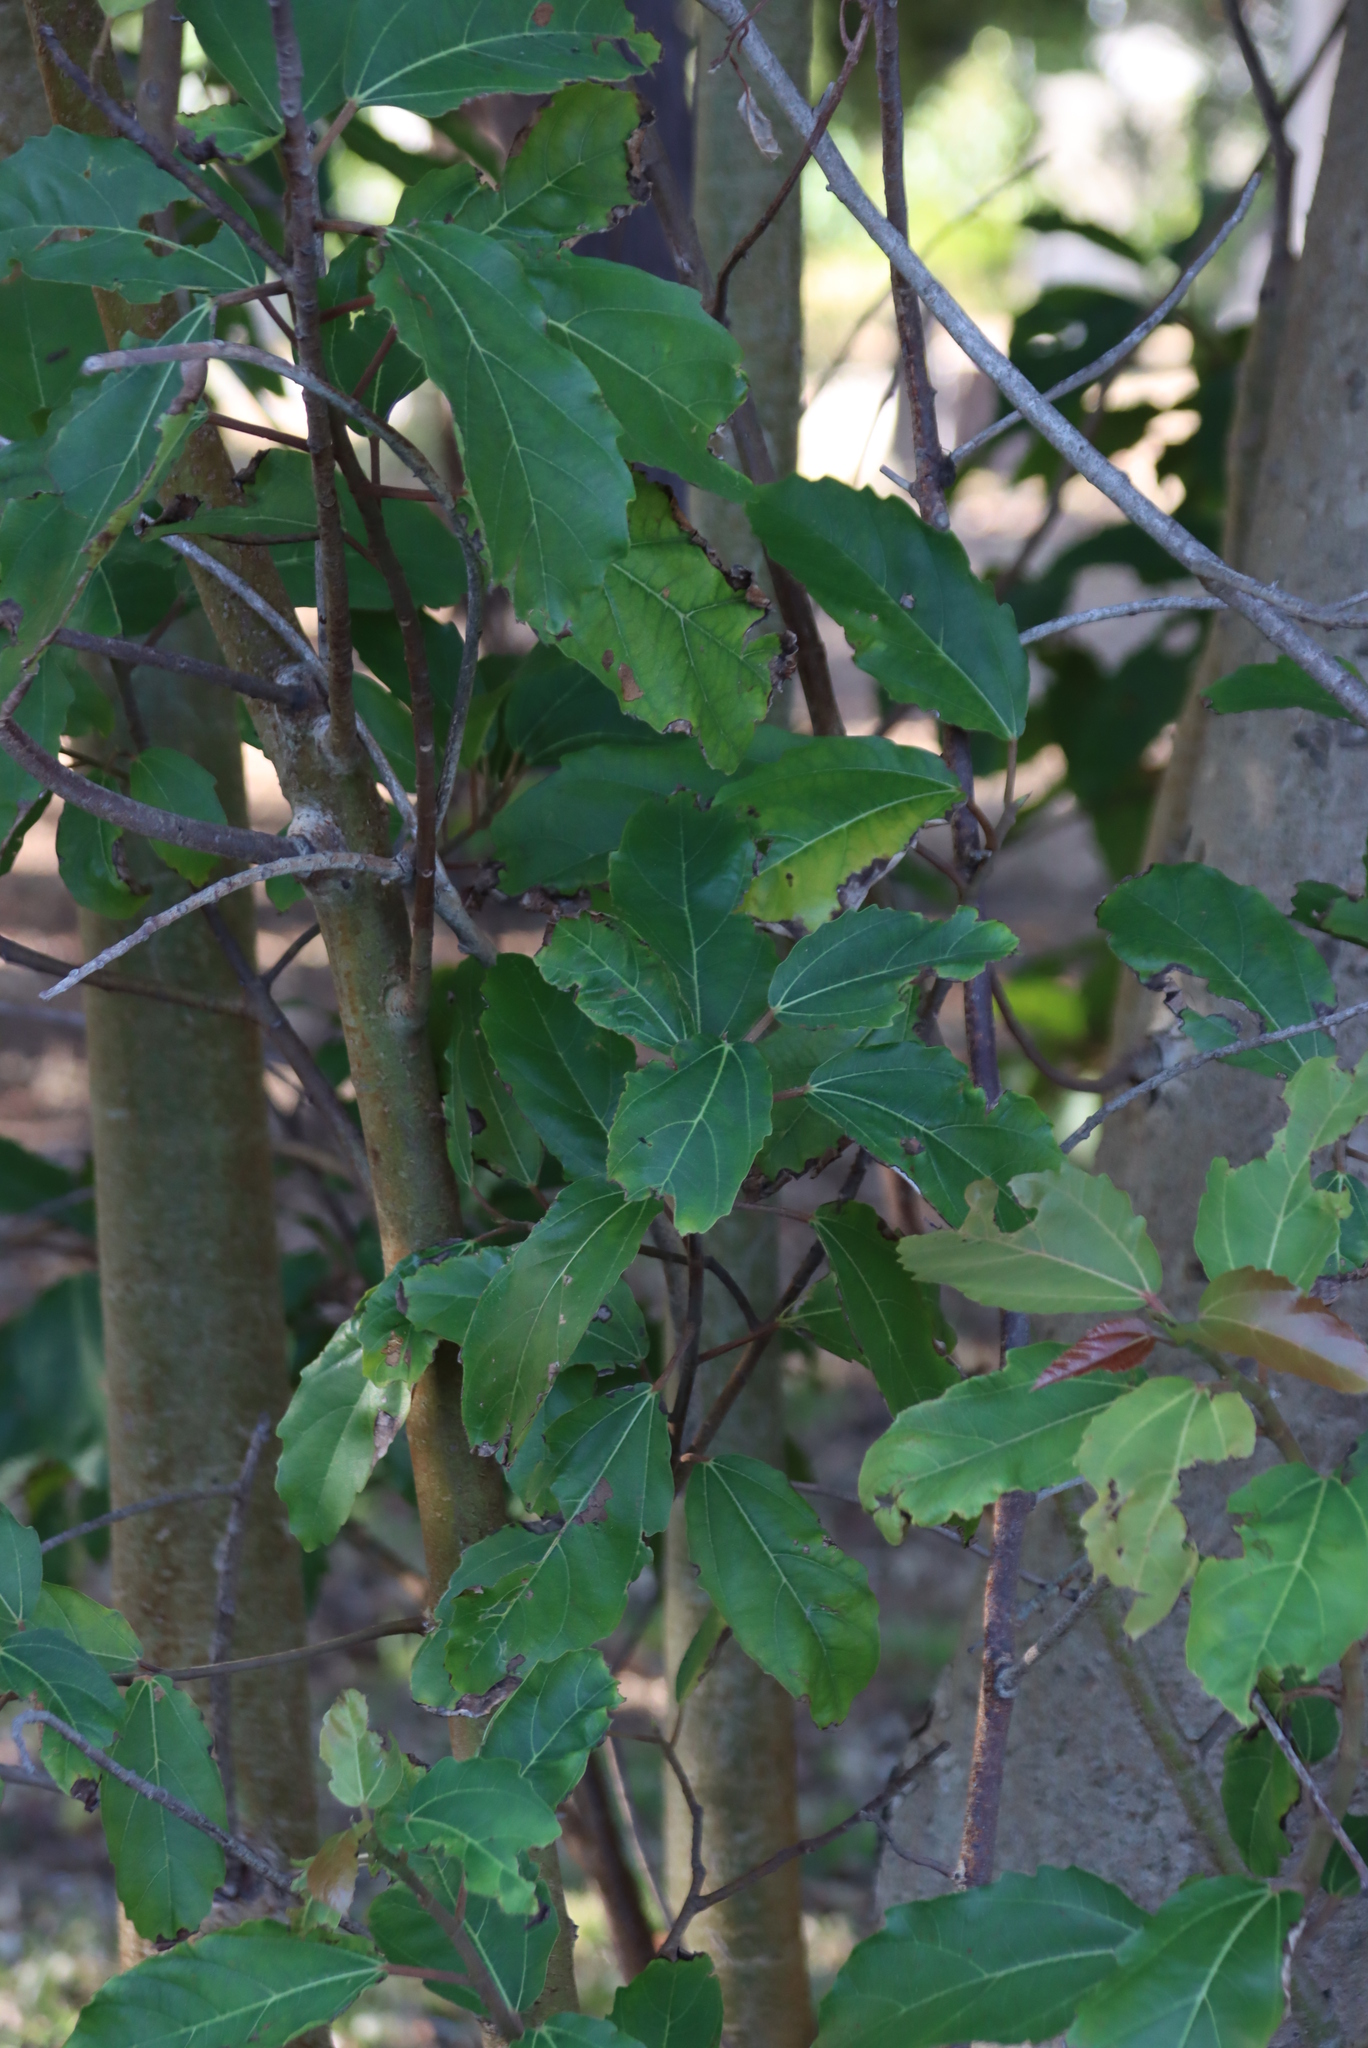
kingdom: Plantae
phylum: Tracheophyta
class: Magnoliopsida
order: Rosales
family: Moraceae
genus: Ficus
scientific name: Ficus sur
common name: Cape fig
